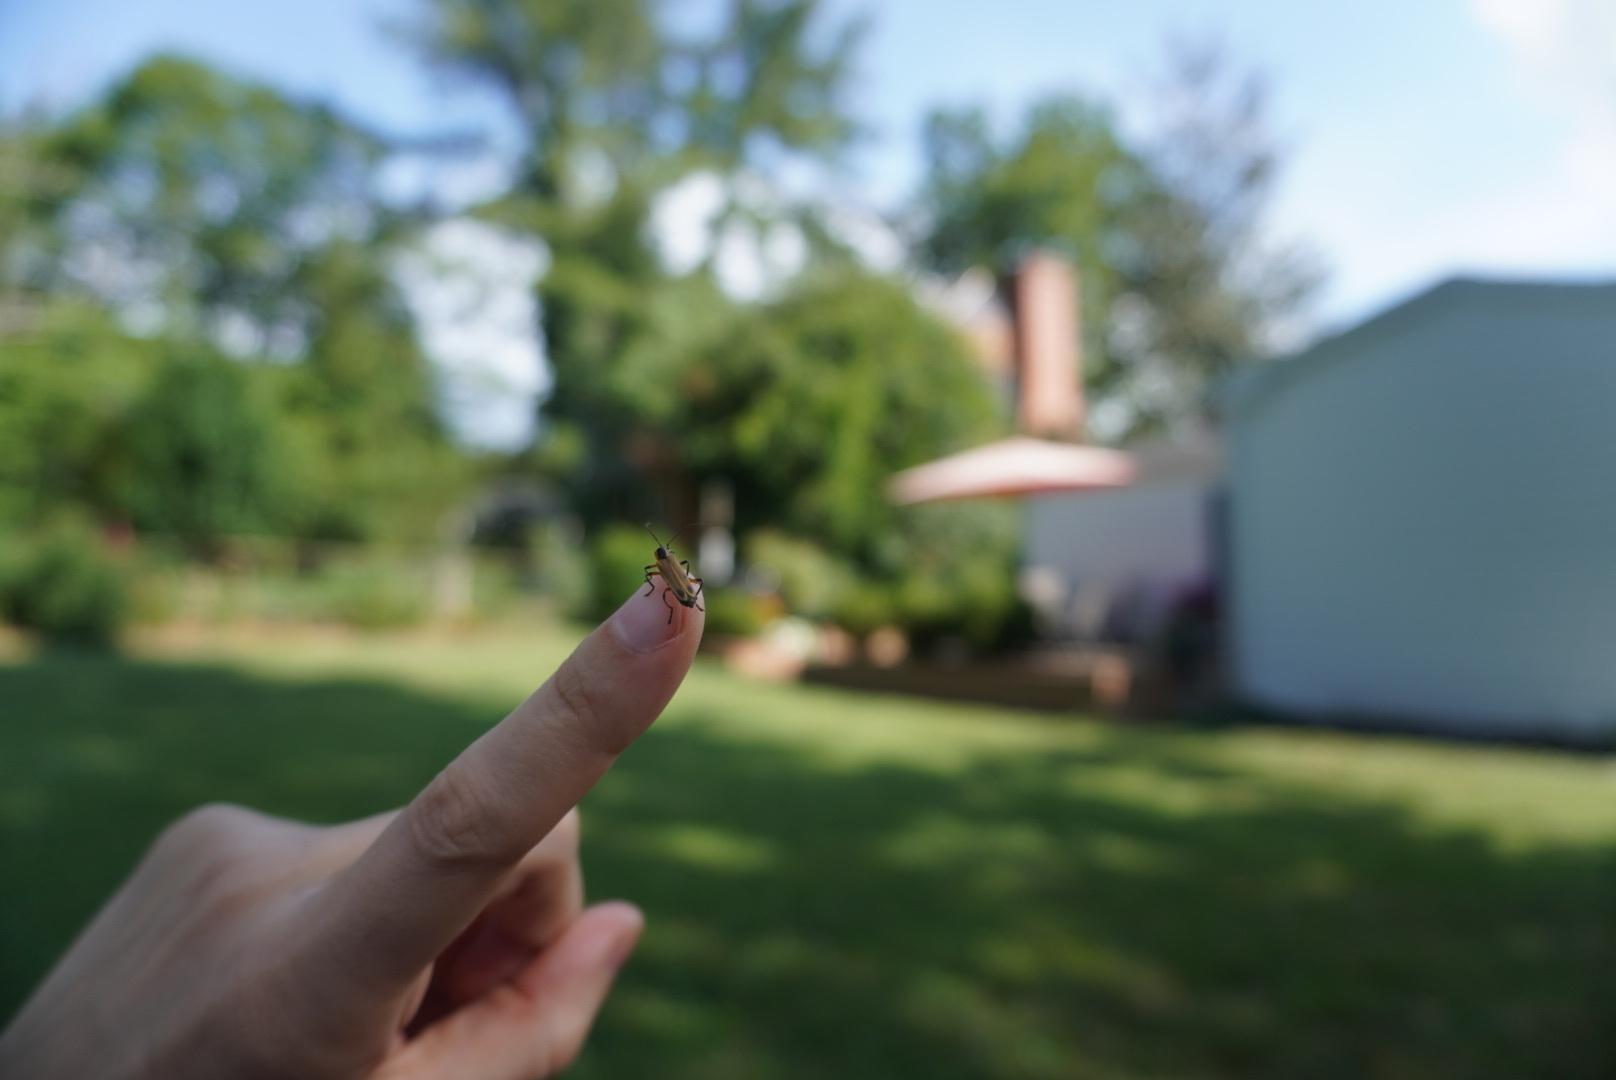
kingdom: Animalia
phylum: Arthropoda
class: Insecta
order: Coleoptera
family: Cantharidae
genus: Chauliognathus
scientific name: Chauliognathus marginatus
